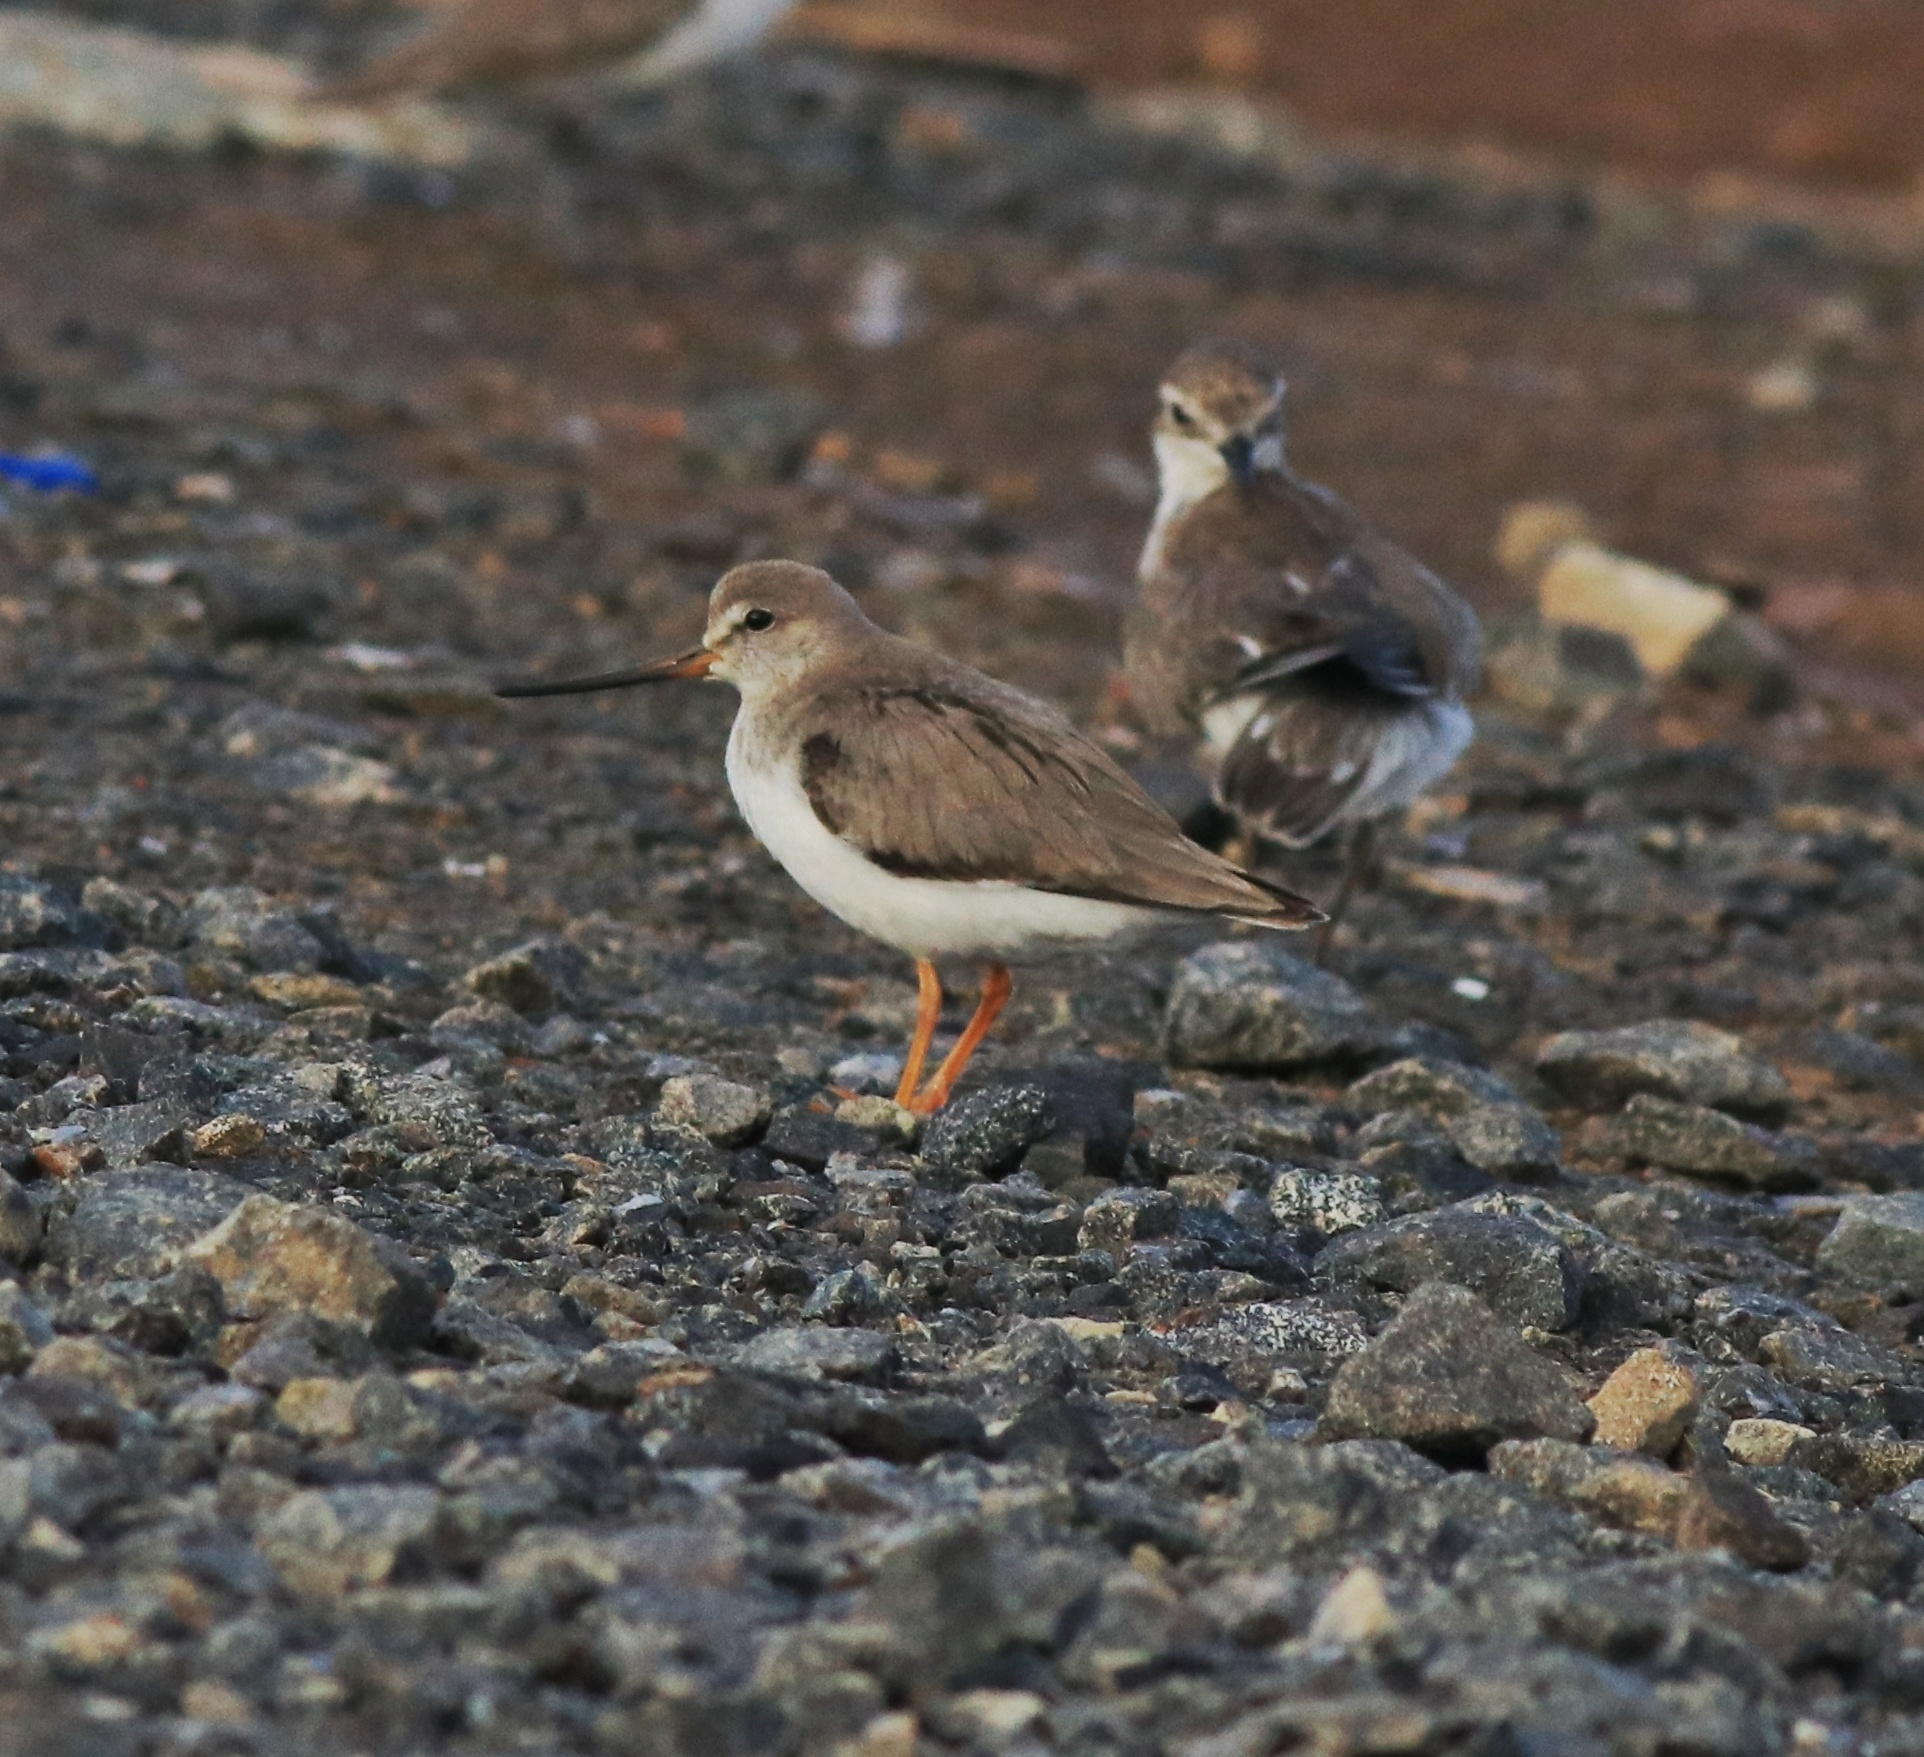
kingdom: Animalia
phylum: Chordata
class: Aves
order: Charadriiformes
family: Scolopacidae
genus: Xenus
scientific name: Xenus cinereus
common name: Terek sandpiper
